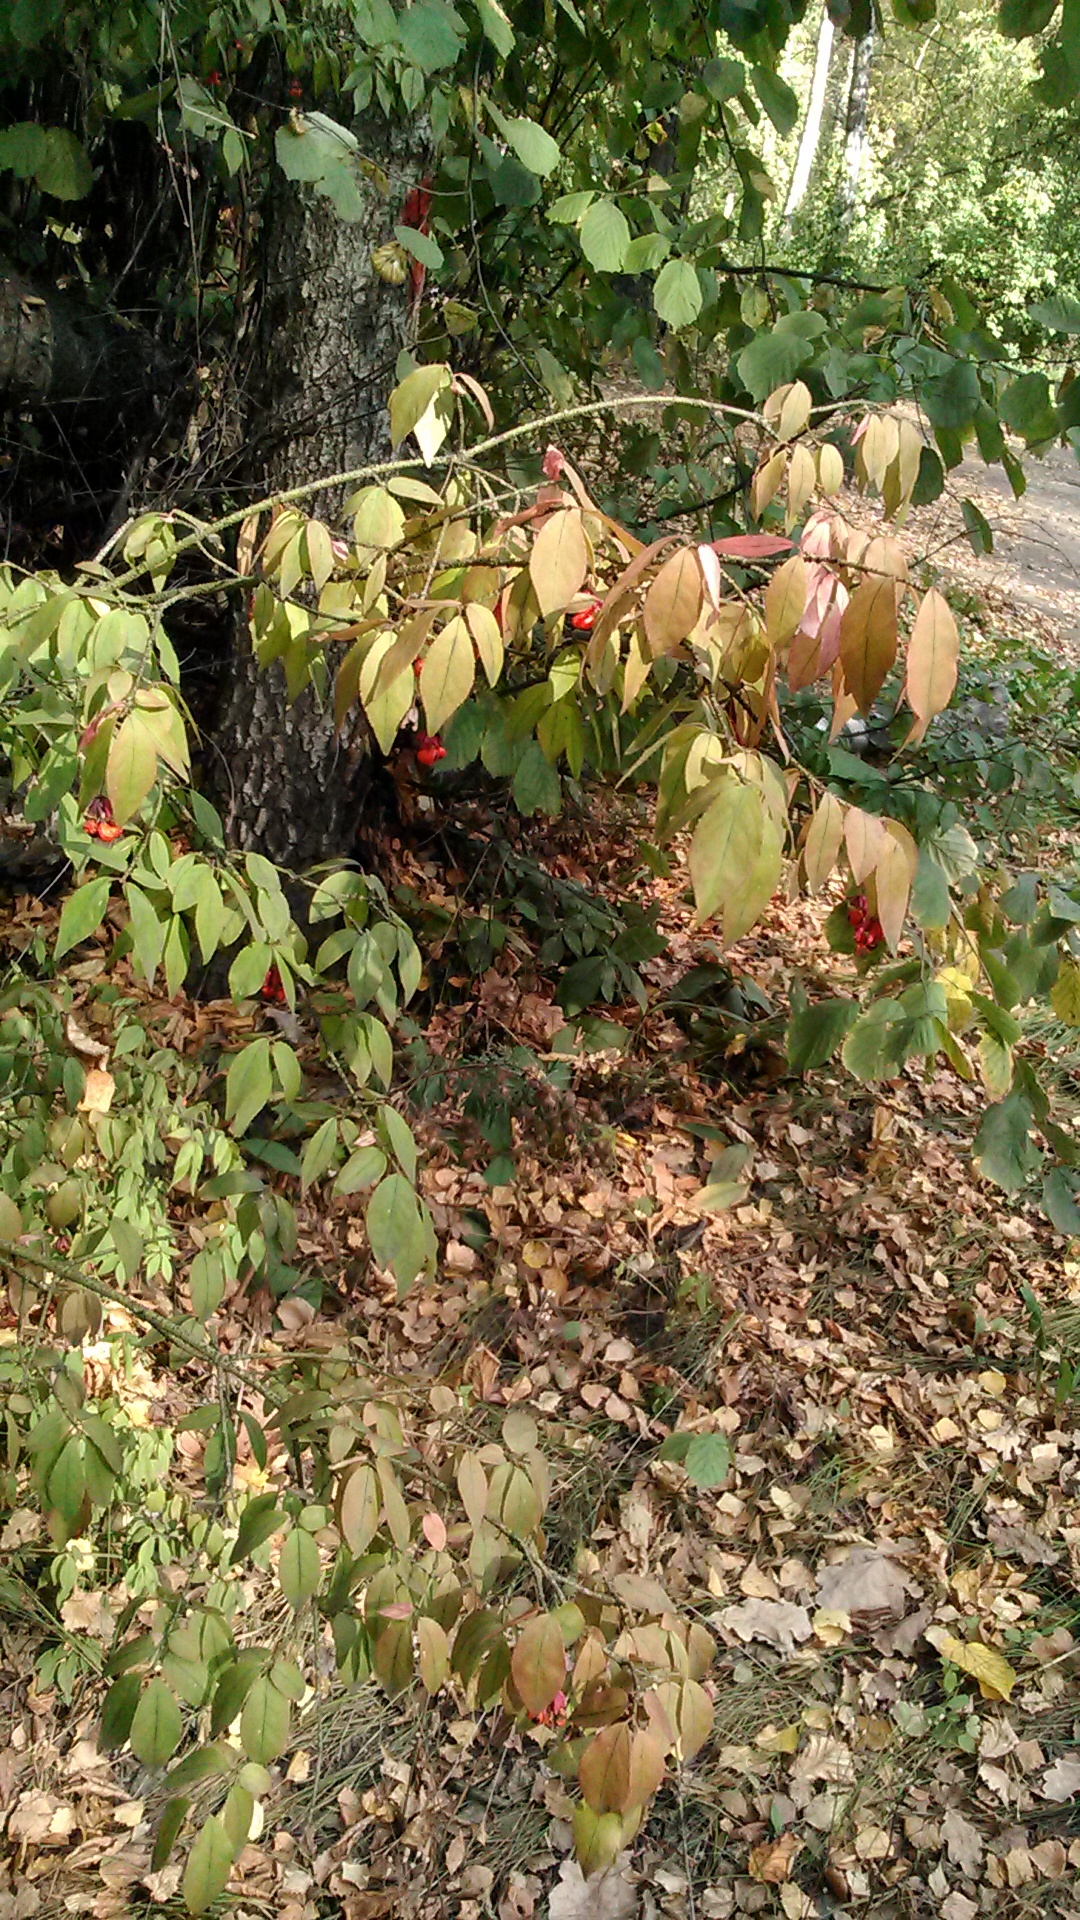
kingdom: Plantae
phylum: Tracheophyta
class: Magnoliopsida
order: Celastrales
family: Celastraceae
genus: Euonymus
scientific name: Euonymus verrucosus
